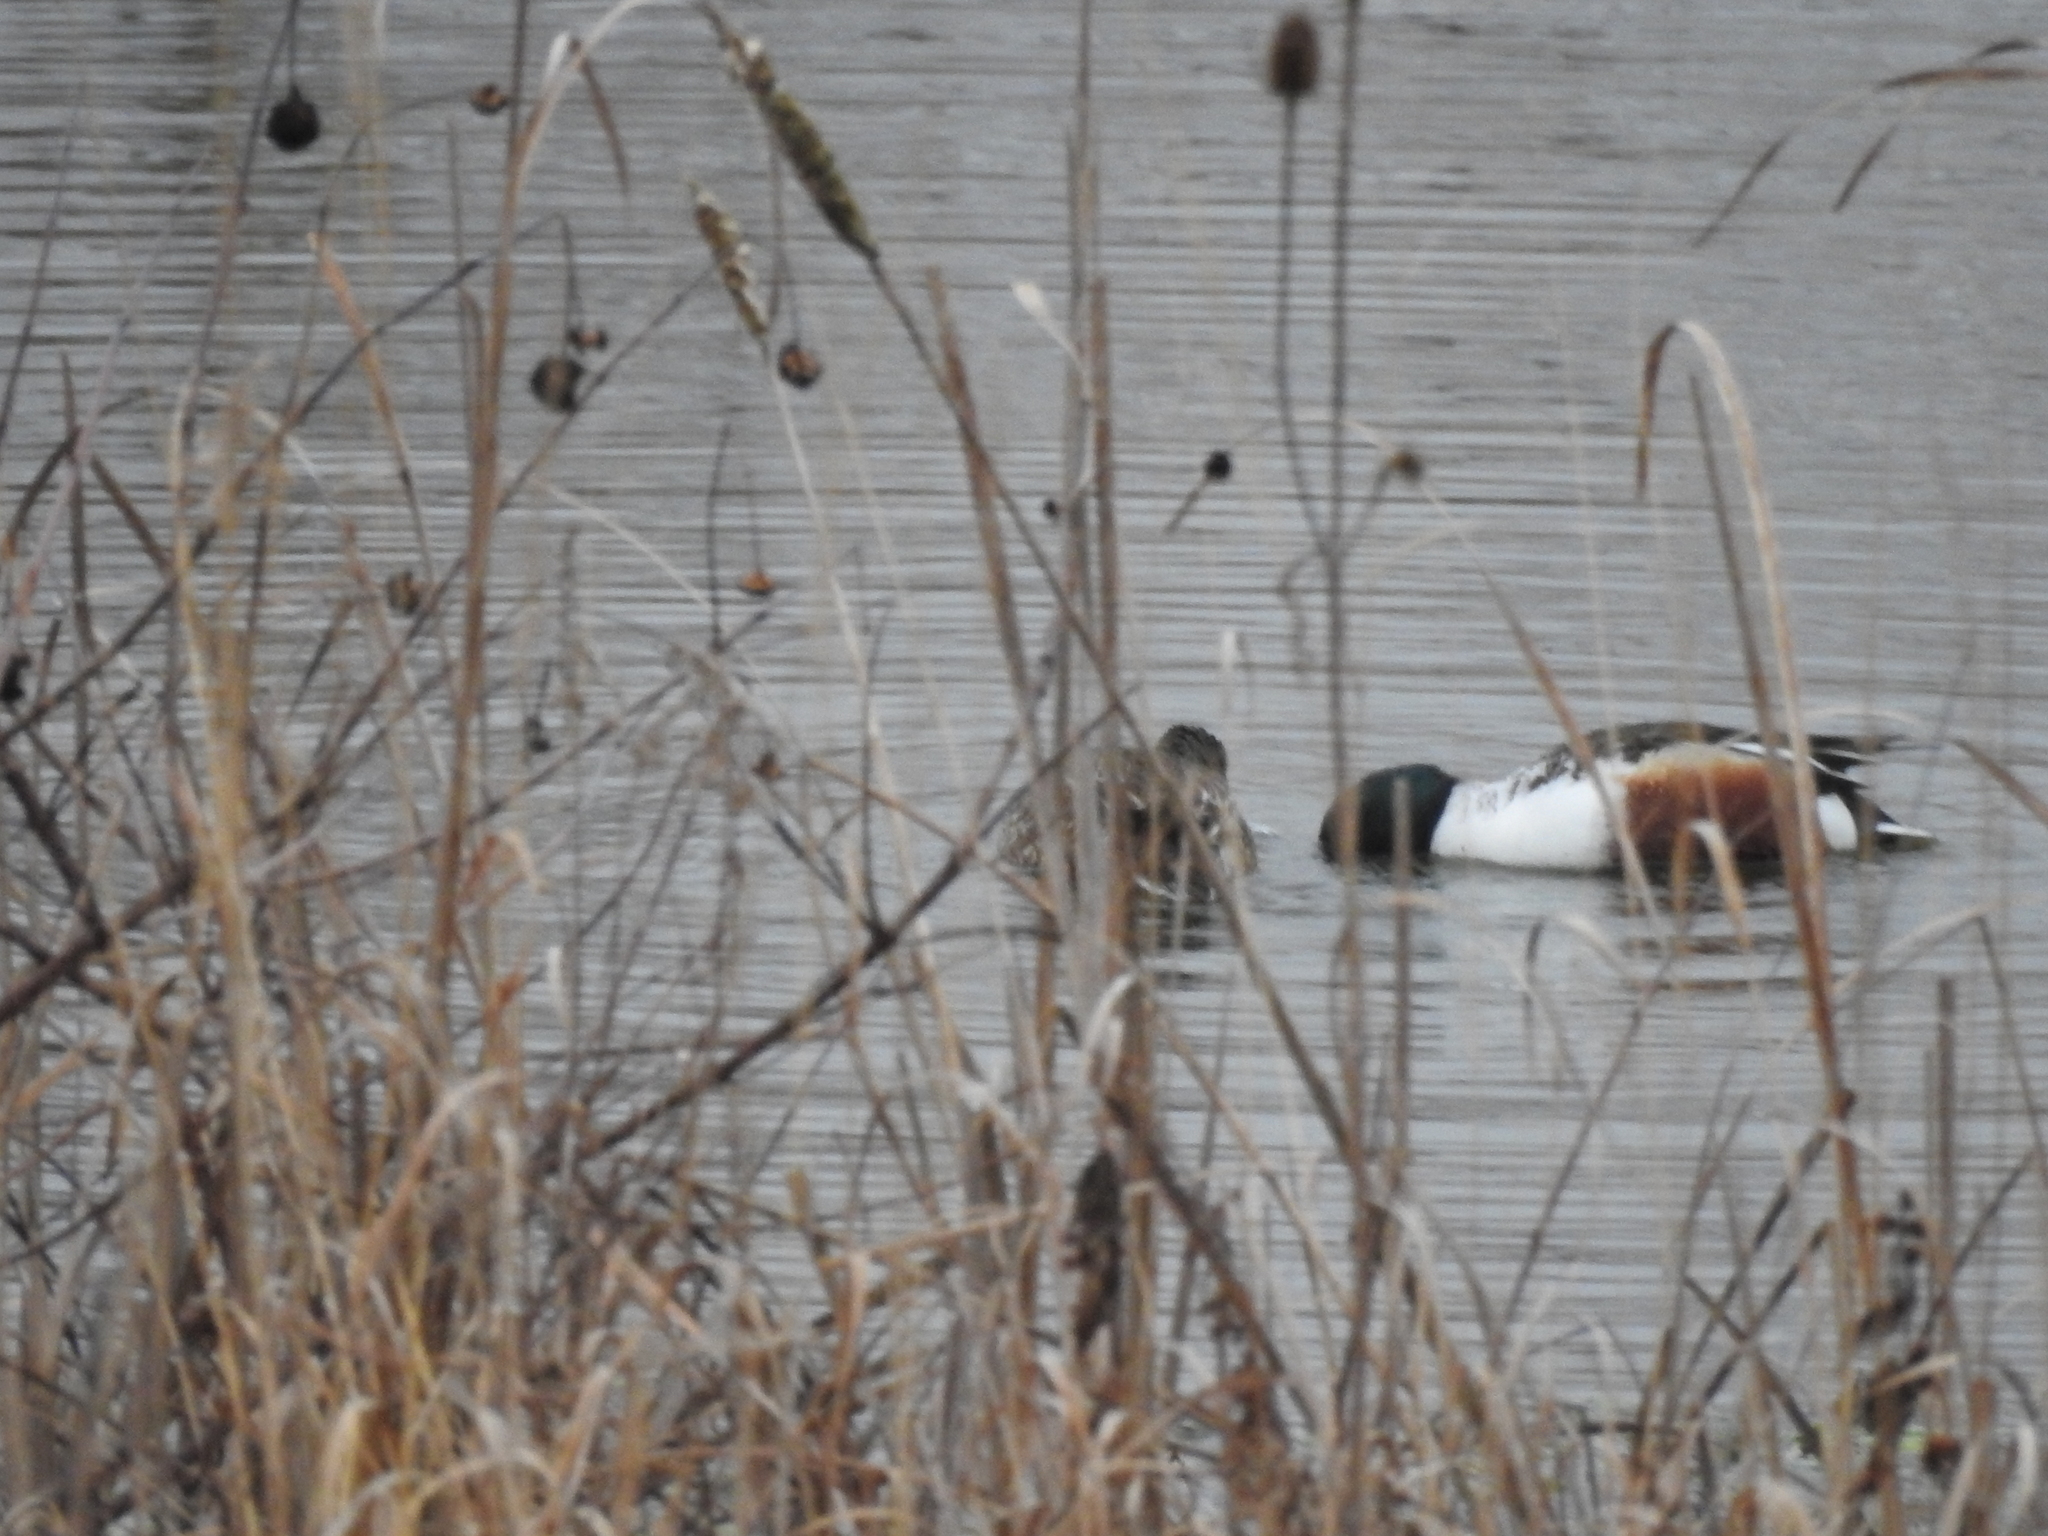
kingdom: Animalia
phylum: Chordata
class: Aves
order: Anseriformes
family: Anatidae
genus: Spatula
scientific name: Spatula clypeata
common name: Northern shoveler
